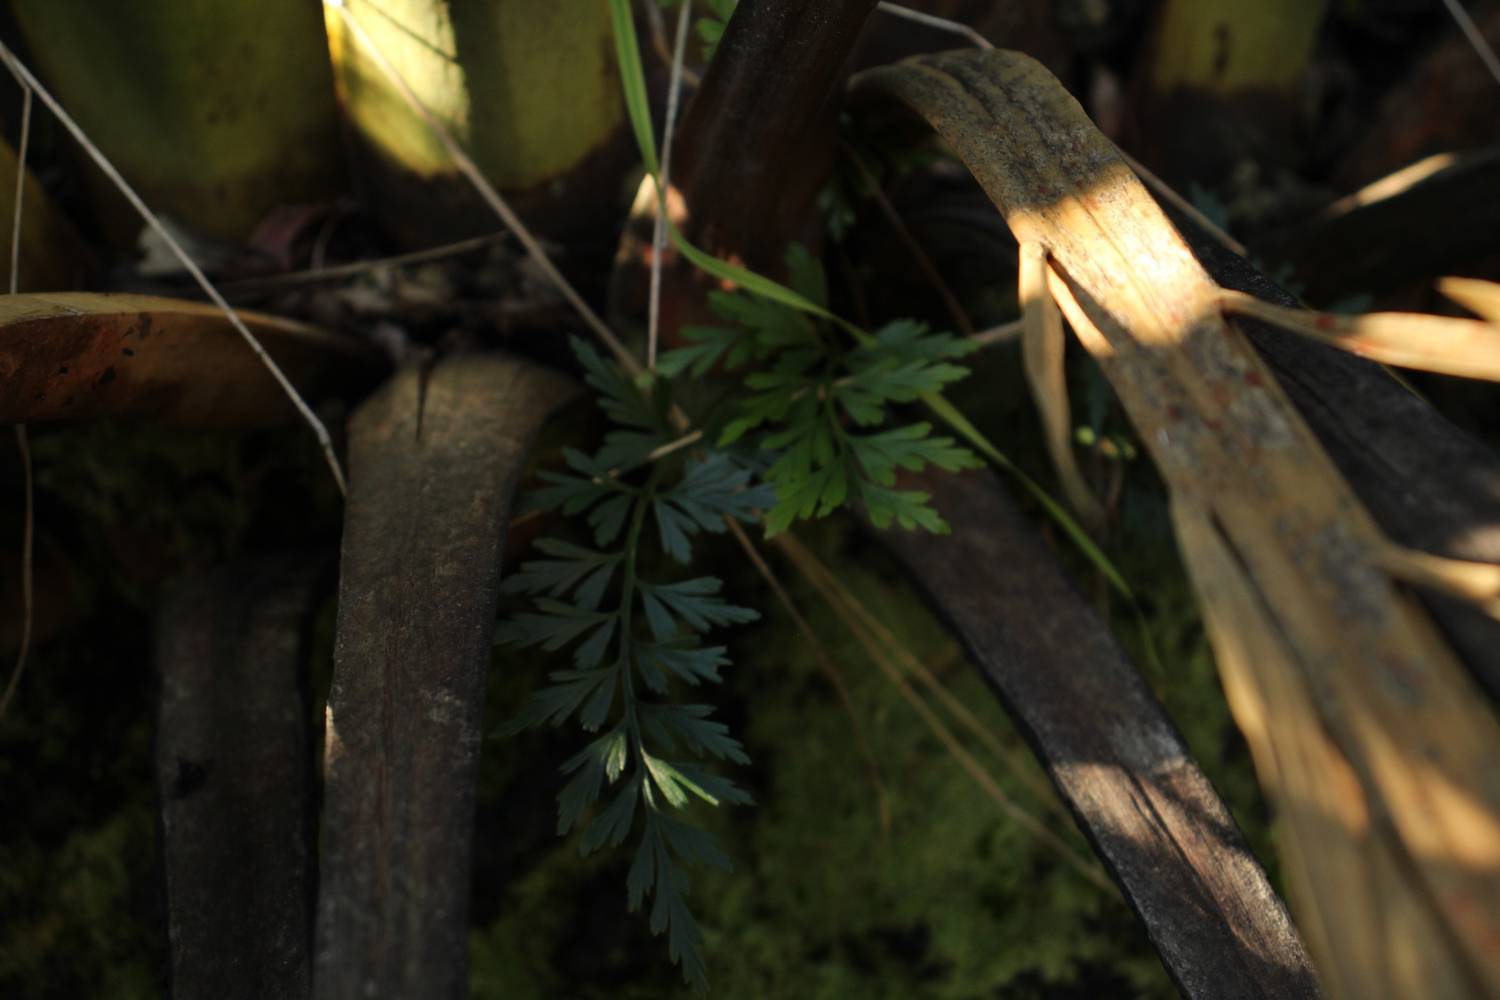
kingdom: Plantae
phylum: Tracheophyta
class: Polypodiopsida
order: Polypodiales
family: Aspleniaceae
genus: Asplenium
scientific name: Asplenium aethiopicum
